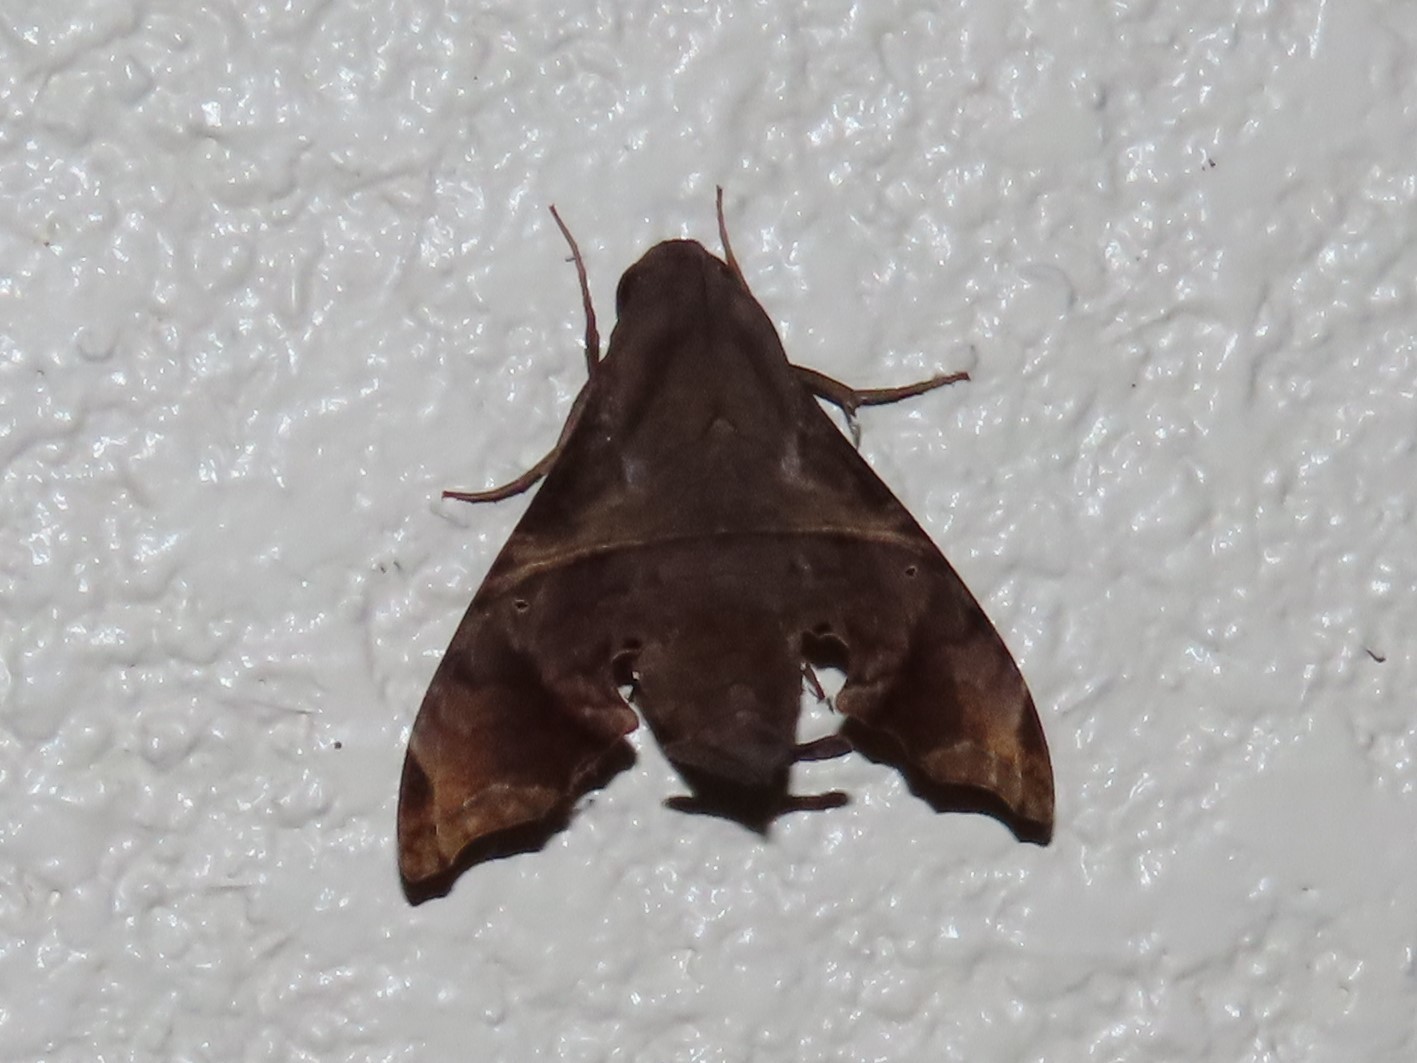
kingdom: Animalia
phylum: Arthropoda
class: Insecta
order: Lepidoptera
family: Sphingidae
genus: Enyo
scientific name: Enyo lugubris
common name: Mournful sphinx
